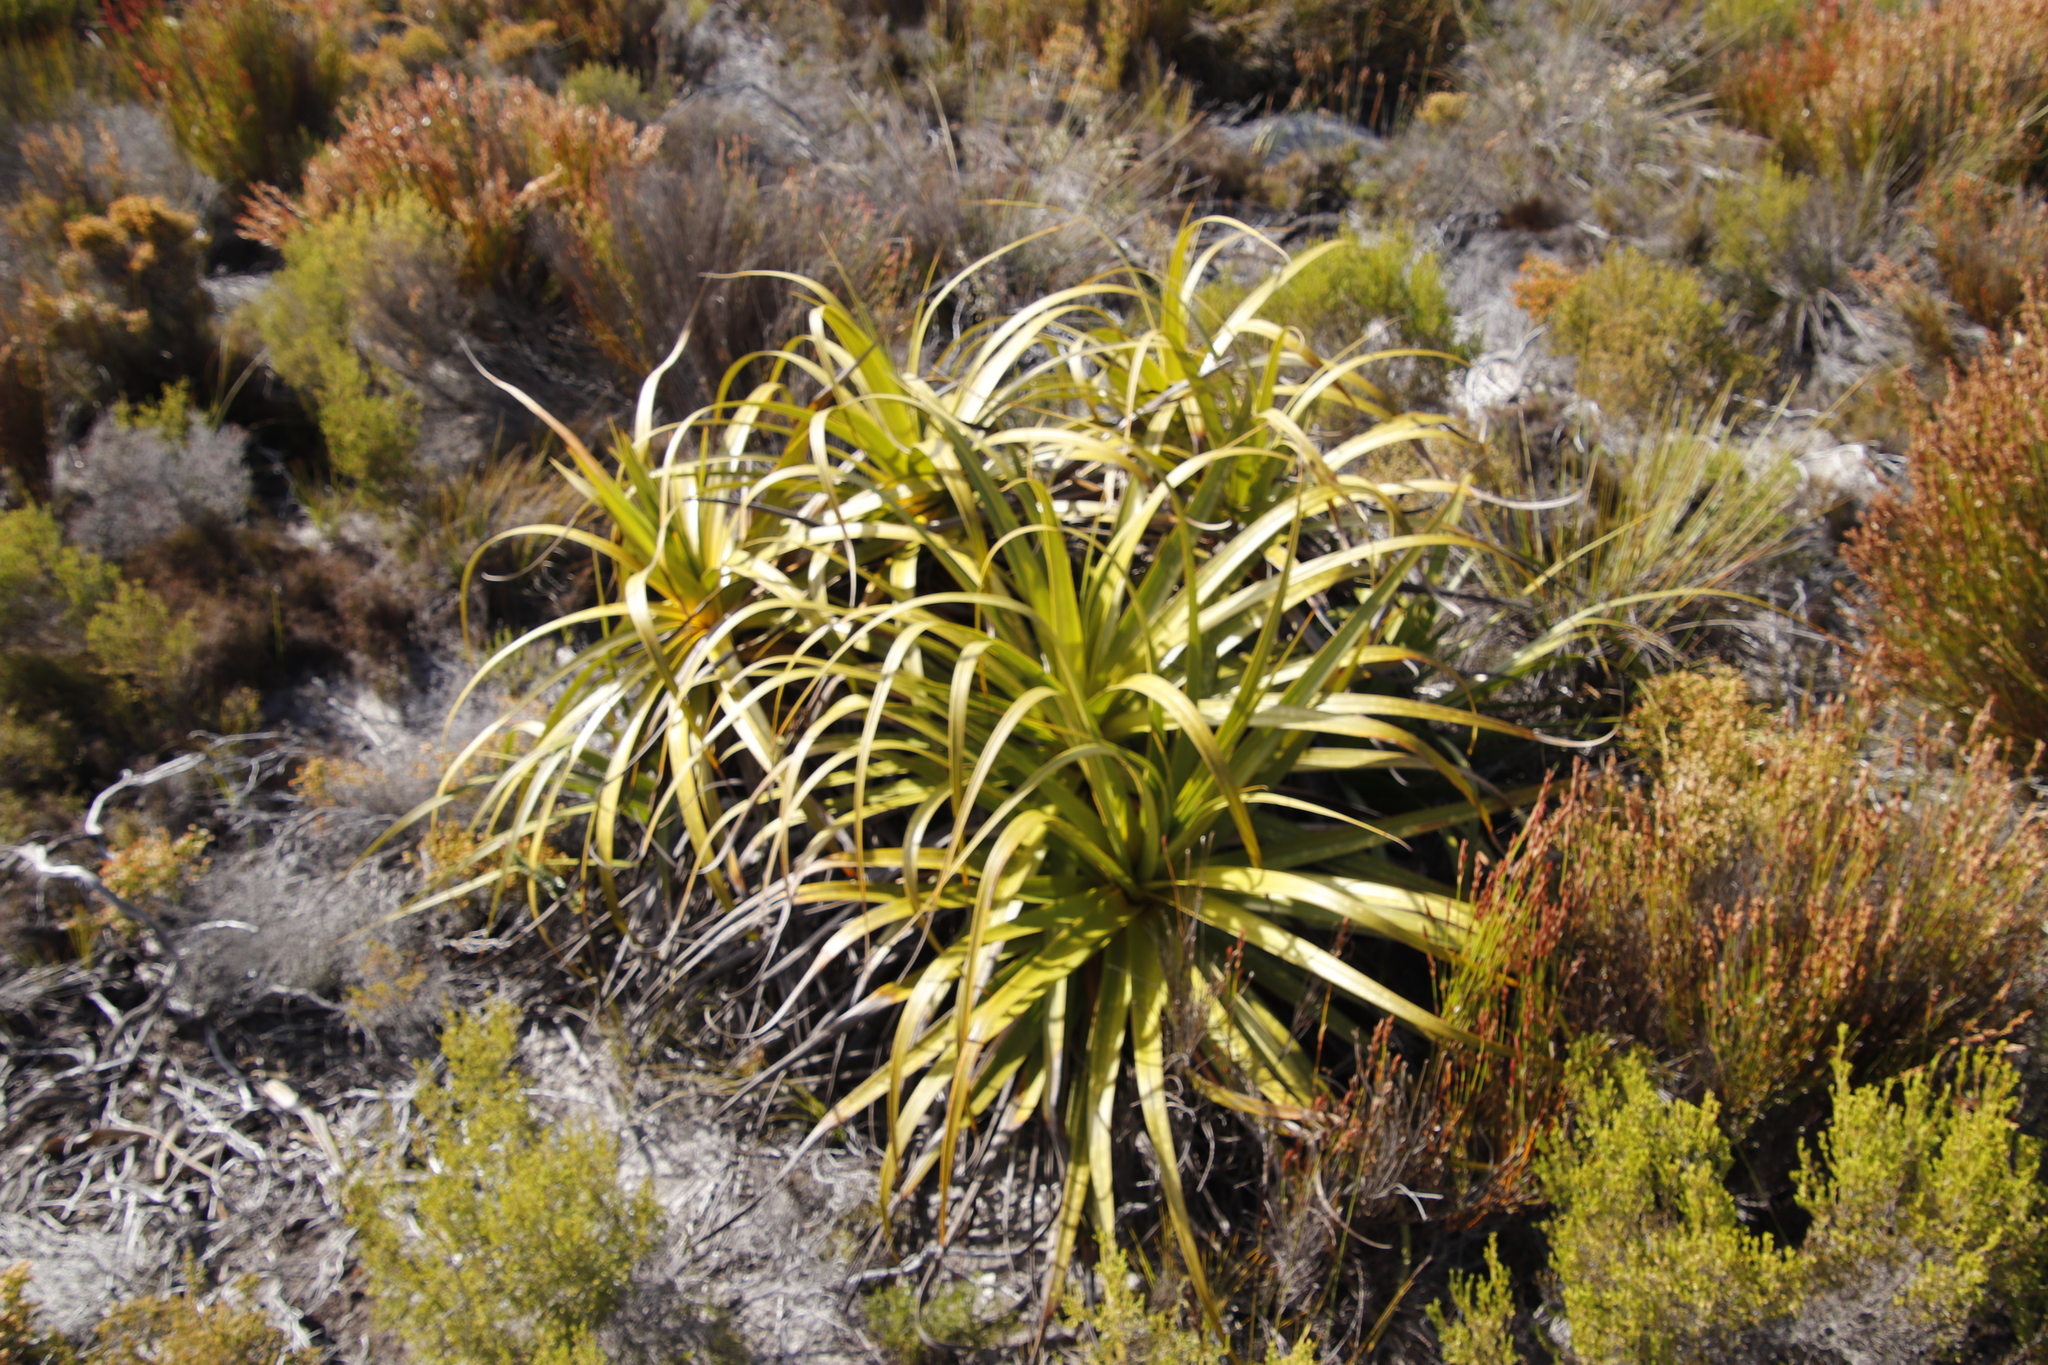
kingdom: Plantae
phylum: Tracheophyta
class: Liliopsida
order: Poales
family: Cyperaceae
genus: Tetraria
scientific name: Tetraria thermalis
